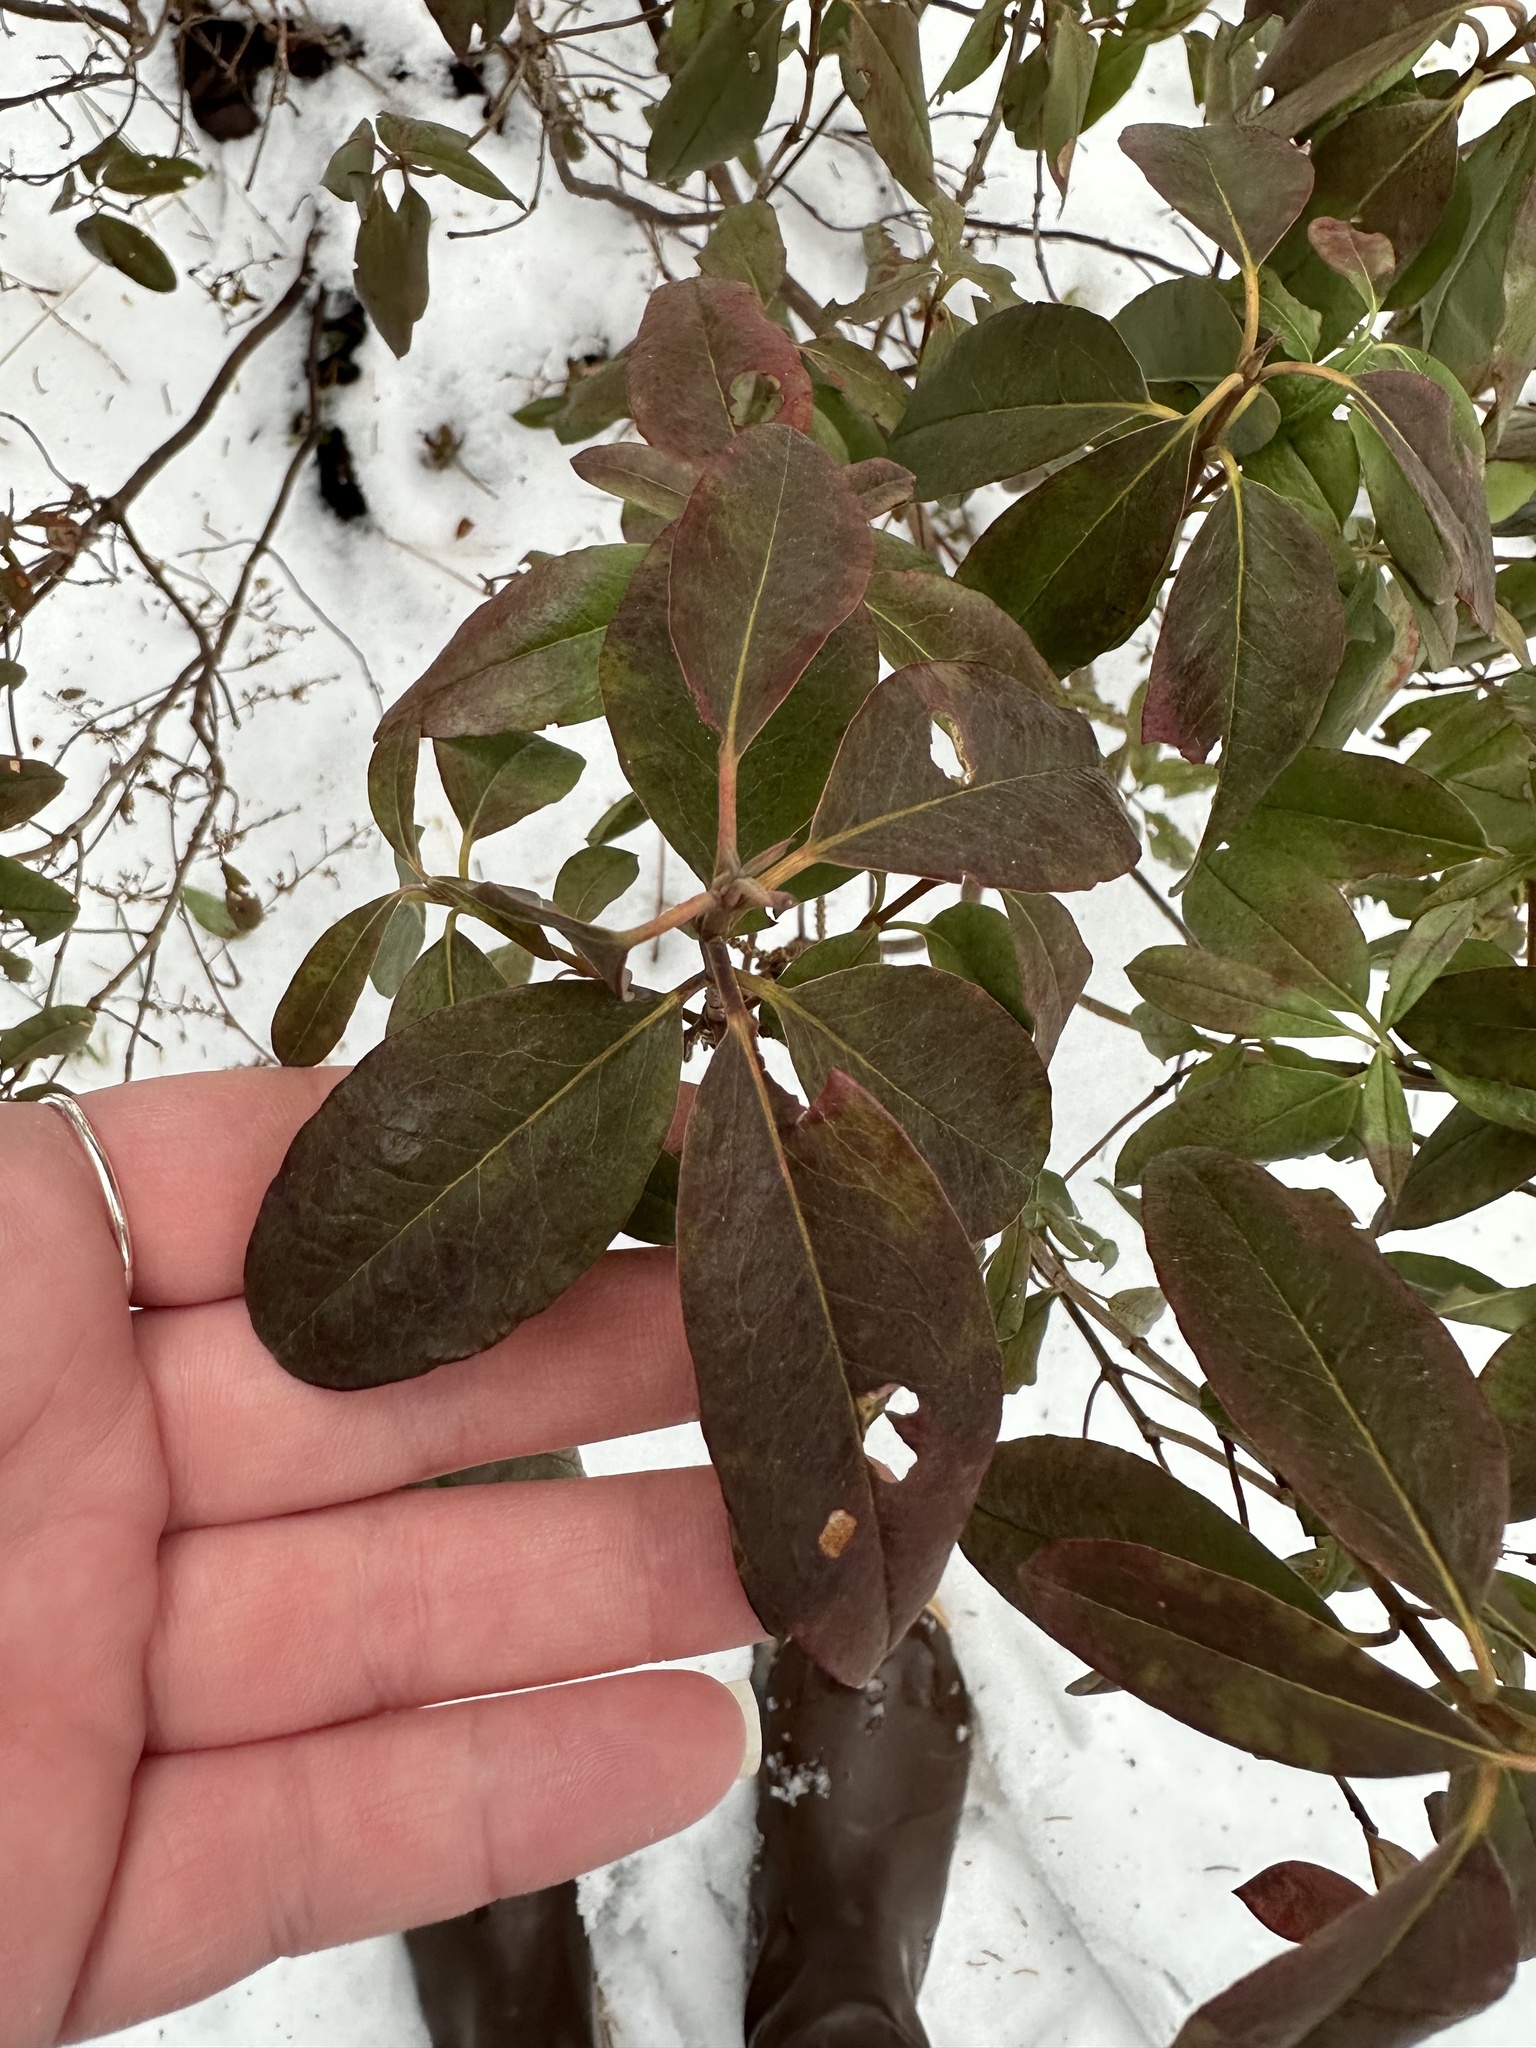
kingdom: Plantae
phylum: Tracheophyta
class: Magnoliopsida
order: Ericales
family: Ericaceae
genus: Kalmia
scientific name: Kalmia angustifolia
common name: Sheep-laurel
